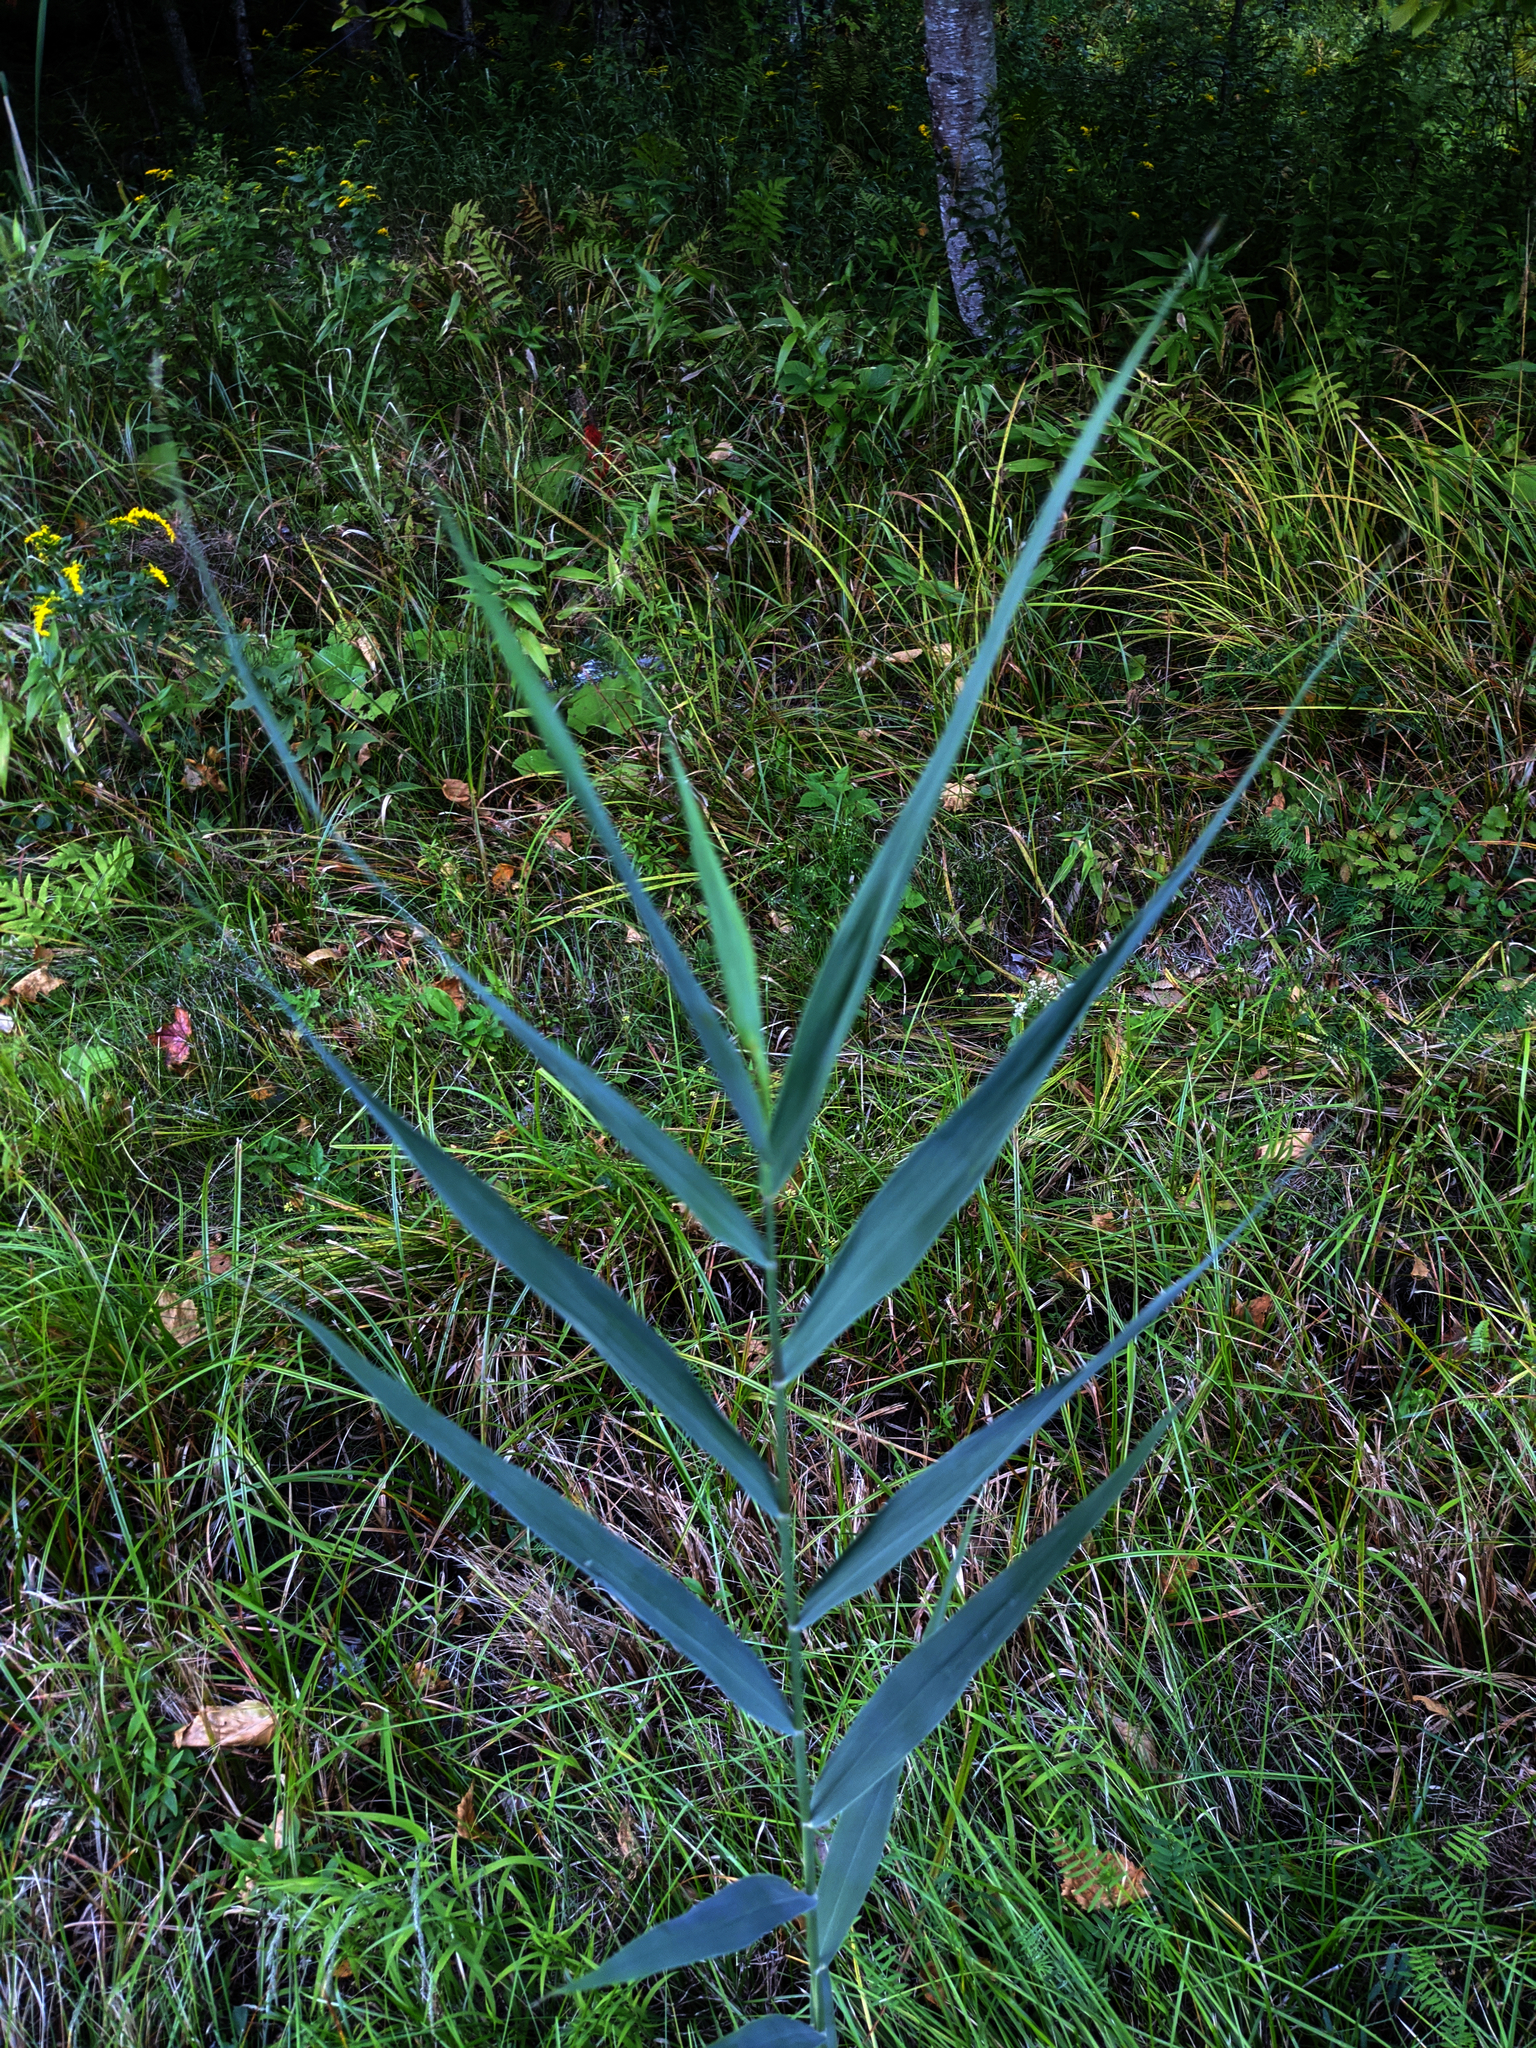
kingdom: Plantae
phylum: Tracheophyta
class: Liliopsida
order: Poales
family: Poaceae
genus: Phragmites
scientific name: Phragmites australis
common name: Common reed
